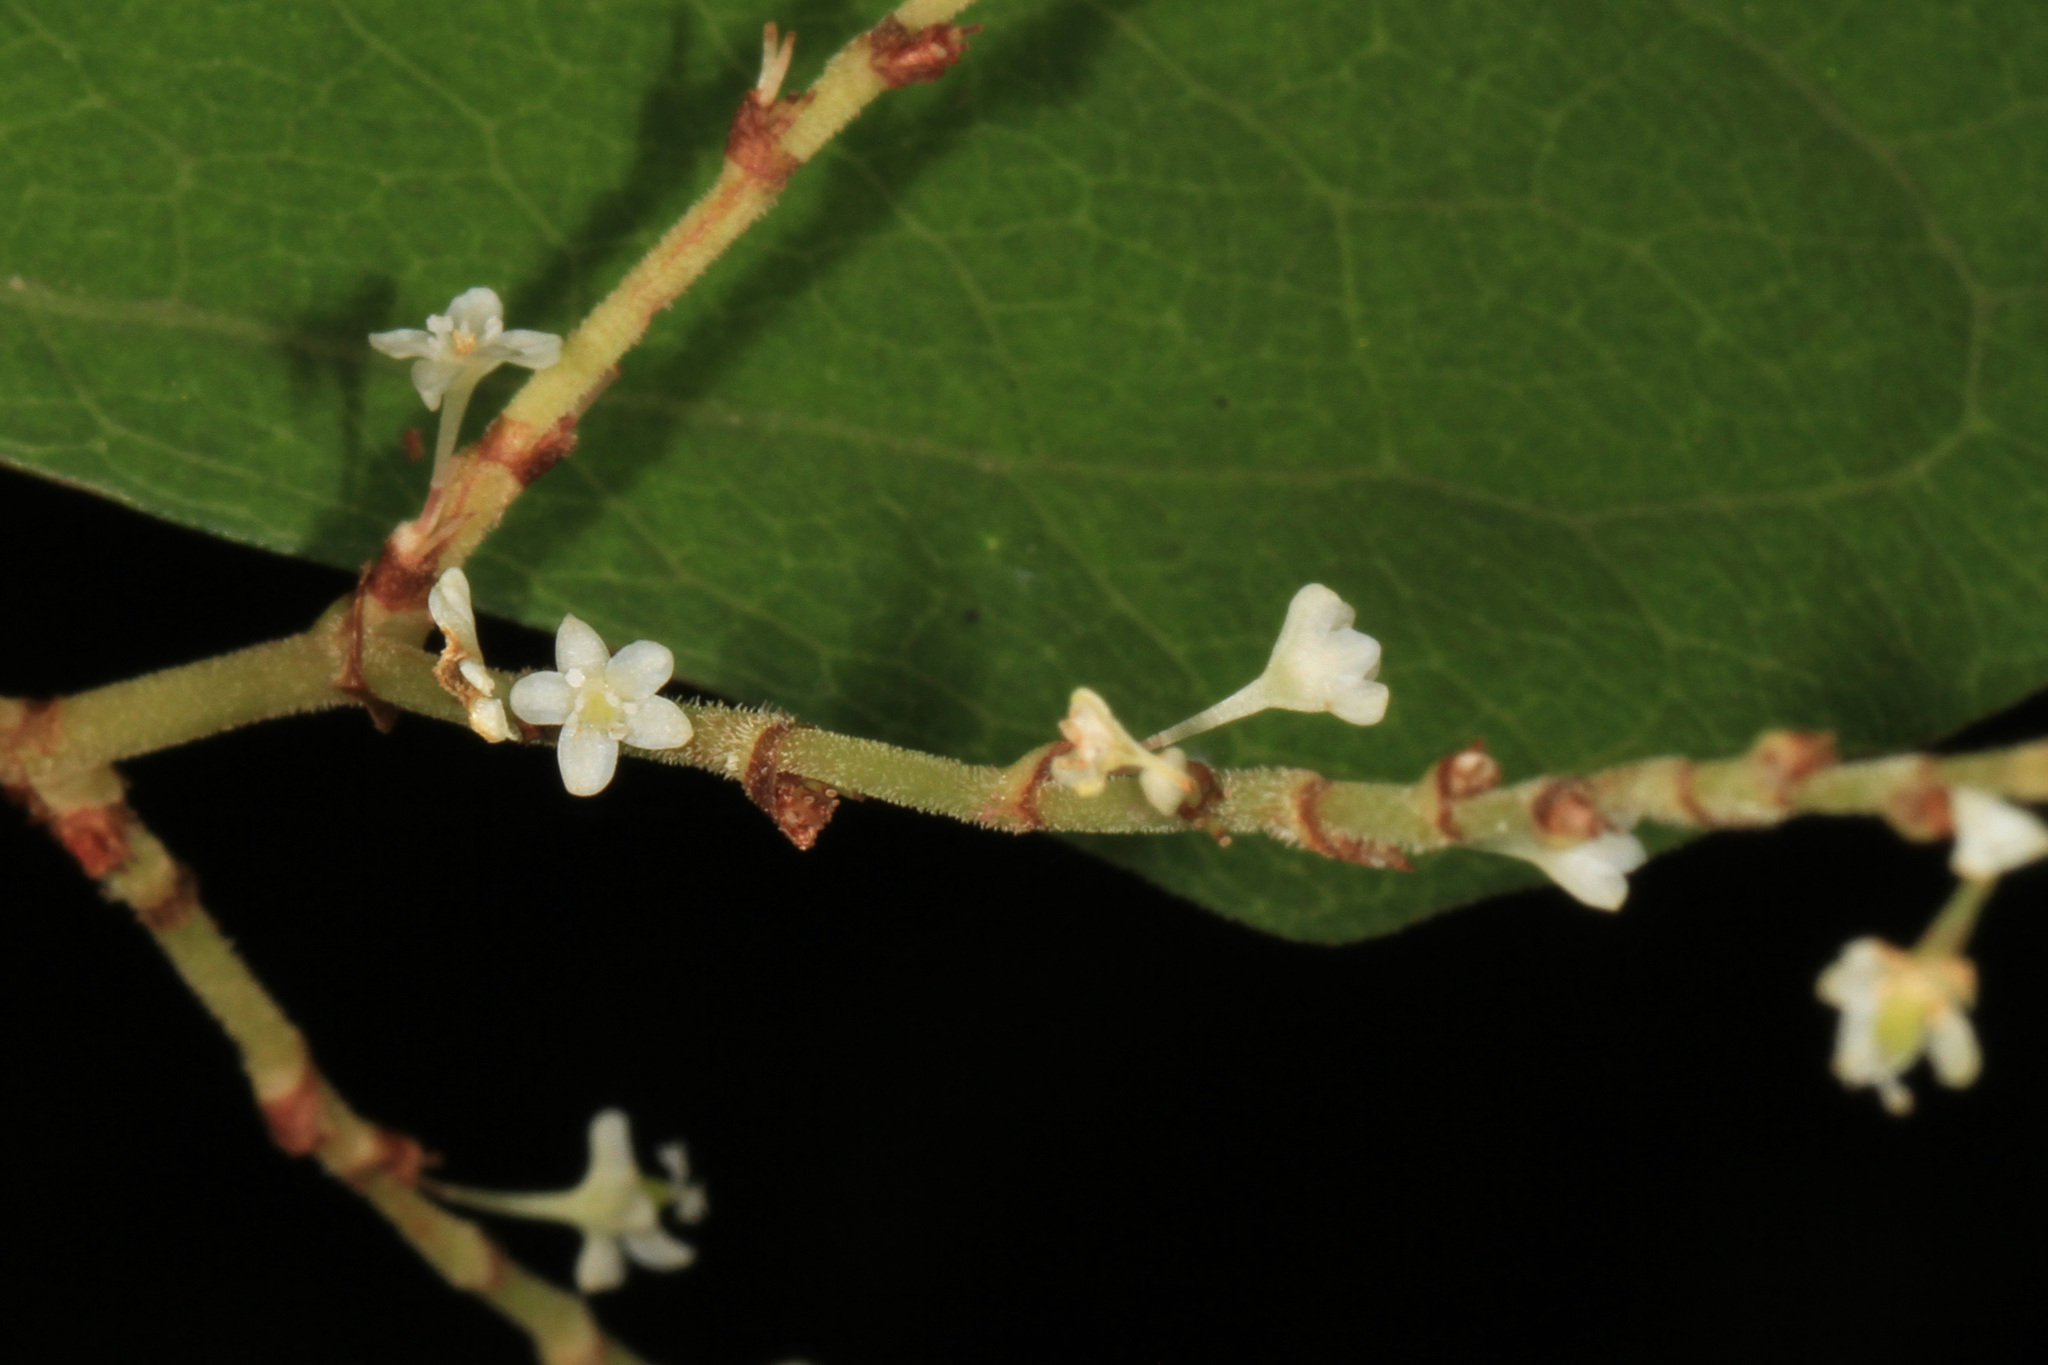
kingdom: Plantae
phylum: Tracheophyta
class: Magnoliopsida
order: Caryophyllales
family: Polygonaceae
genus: Reynoutria
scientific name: Reynoutria japonica
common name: Japanese knotweed
